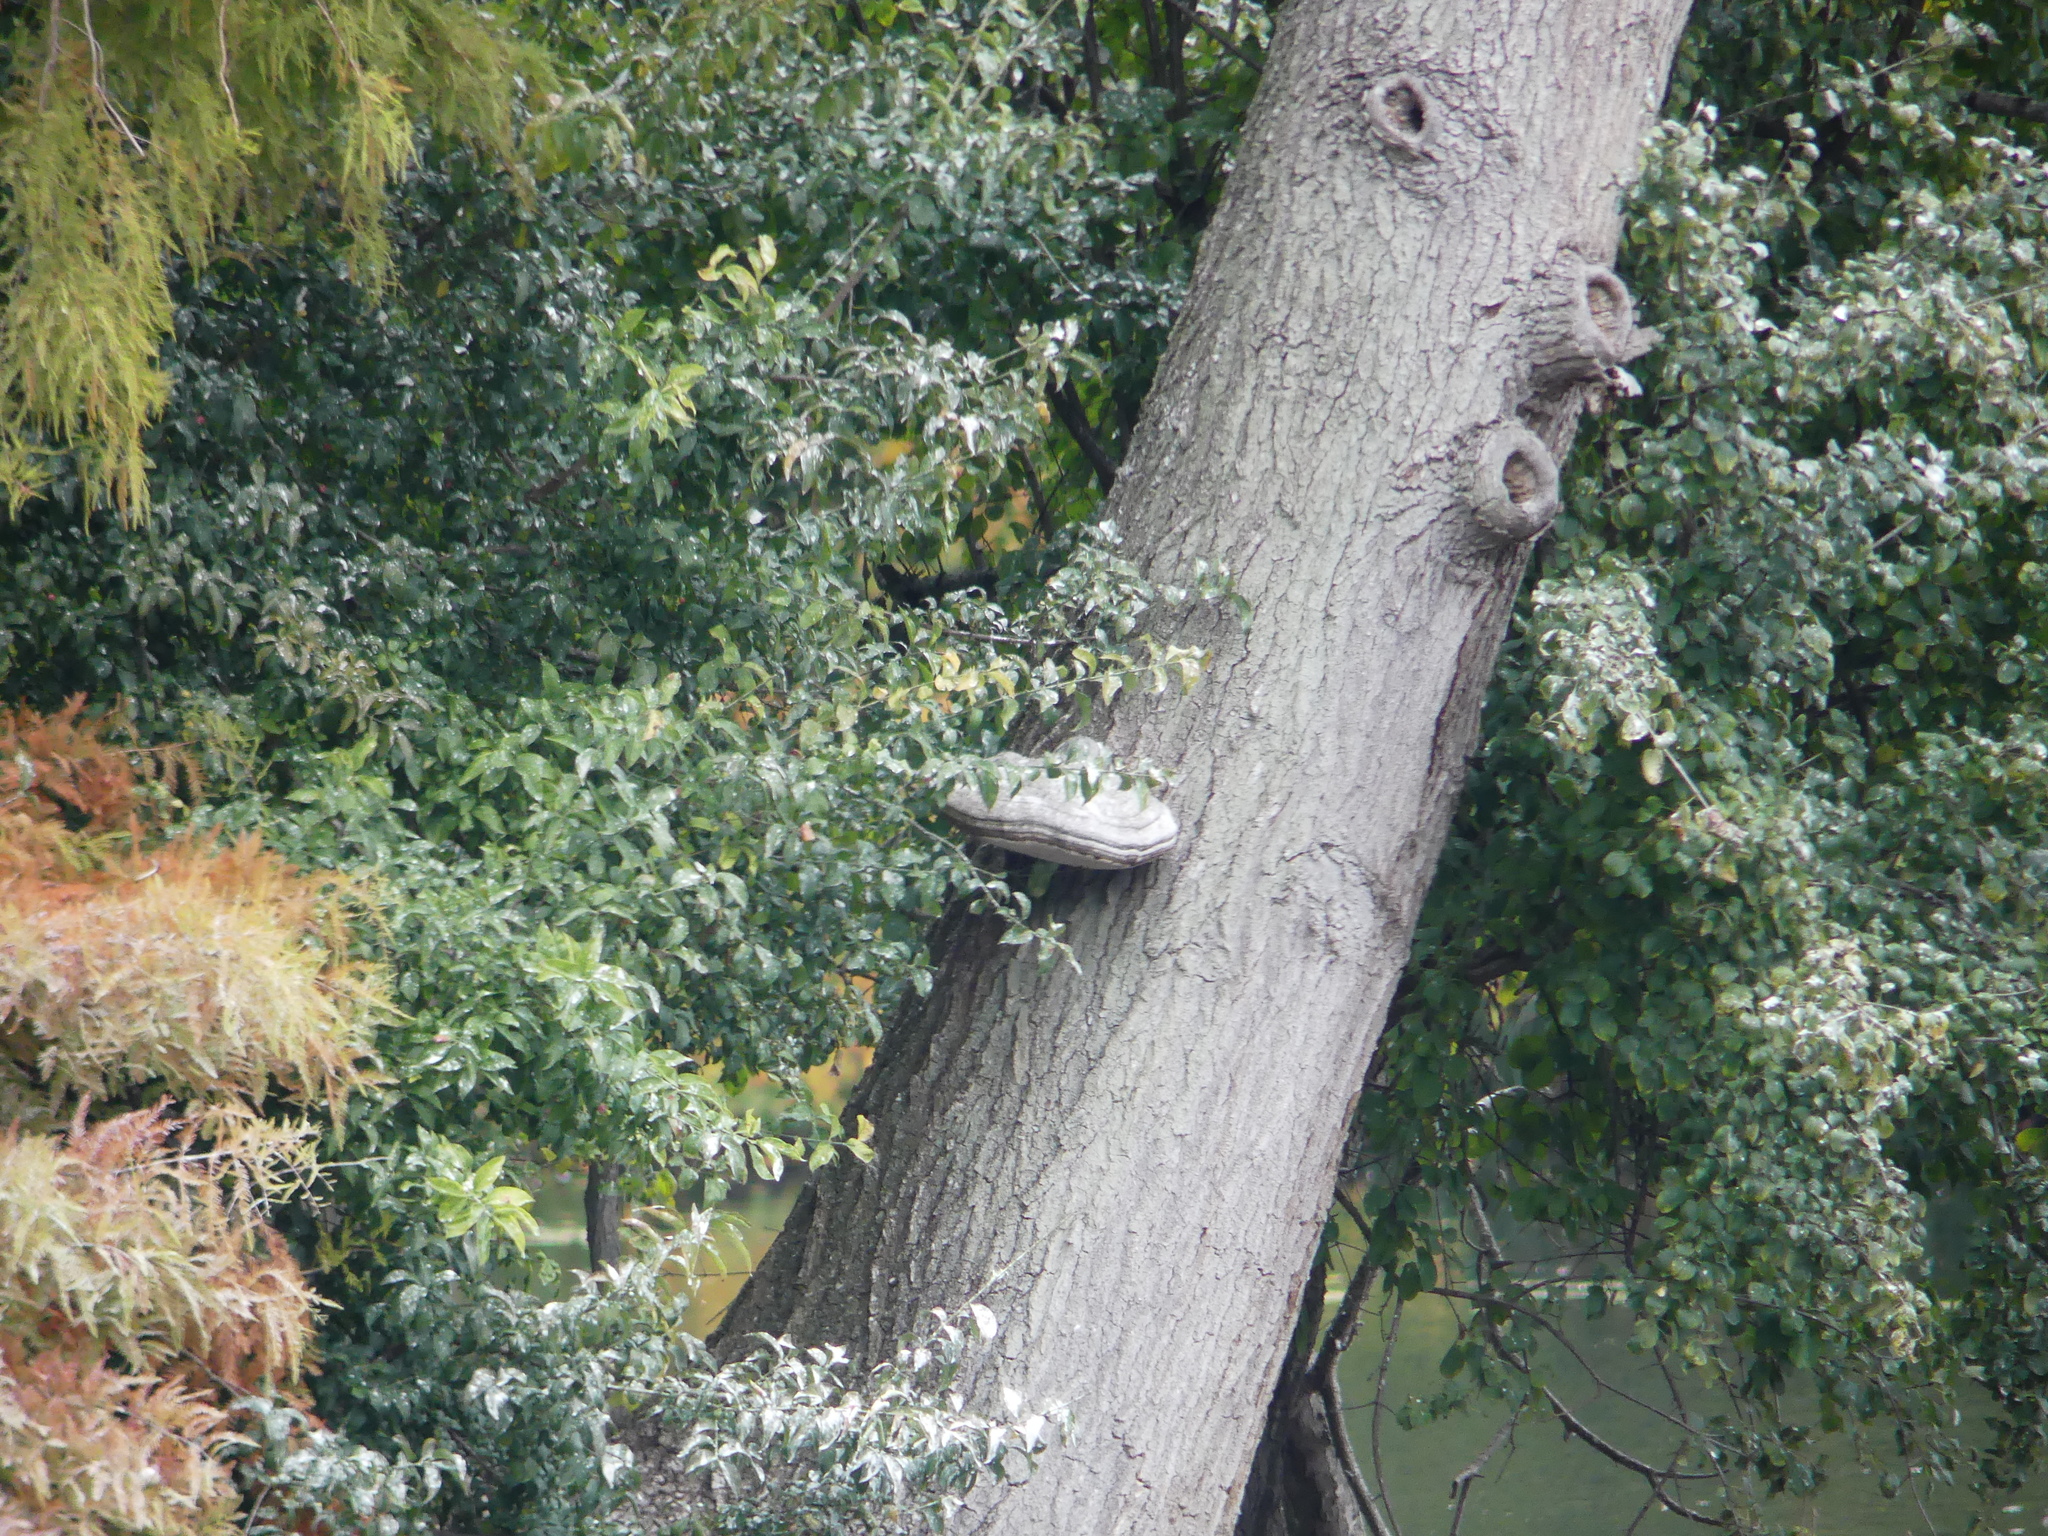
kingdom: Fungi
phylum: Basidiomycota
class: Agaricomycetes
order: Polyporales
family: Polyporaceae
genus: Fomes
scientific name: Fomes fomentarius
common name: Hoof fungus
